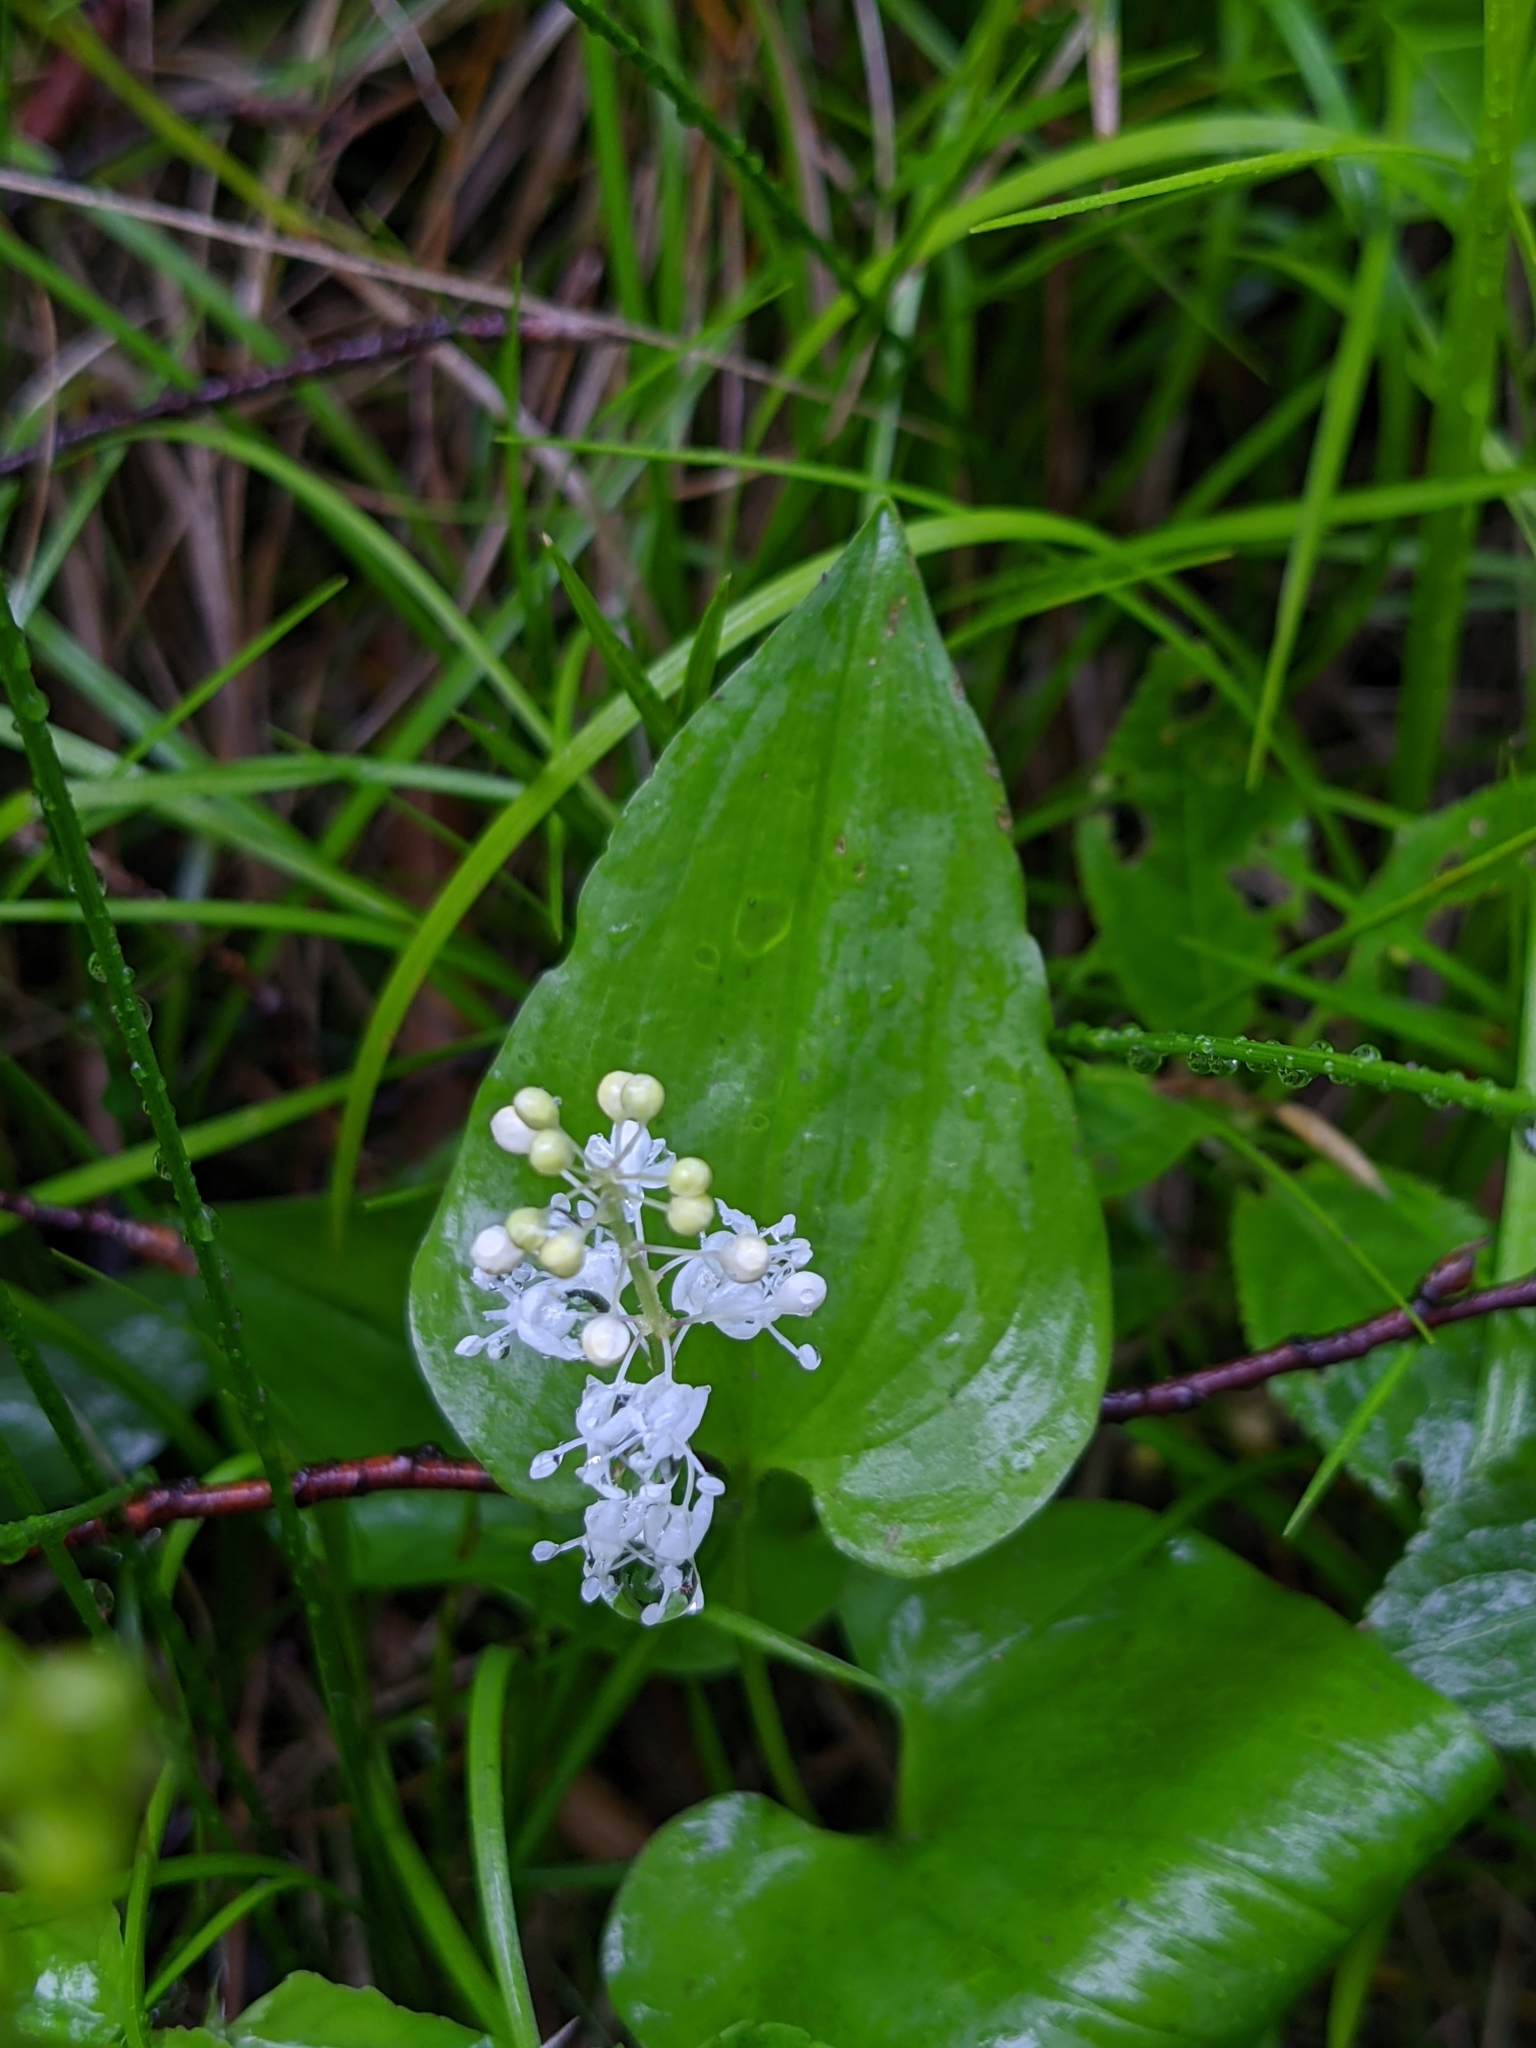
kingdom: Plantae
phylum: Tracheophyta
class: Liliopsida
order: Asparagales
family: Asparagaceae
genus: Maianthemum
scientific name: Maianthemum bifolium
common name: May lily
